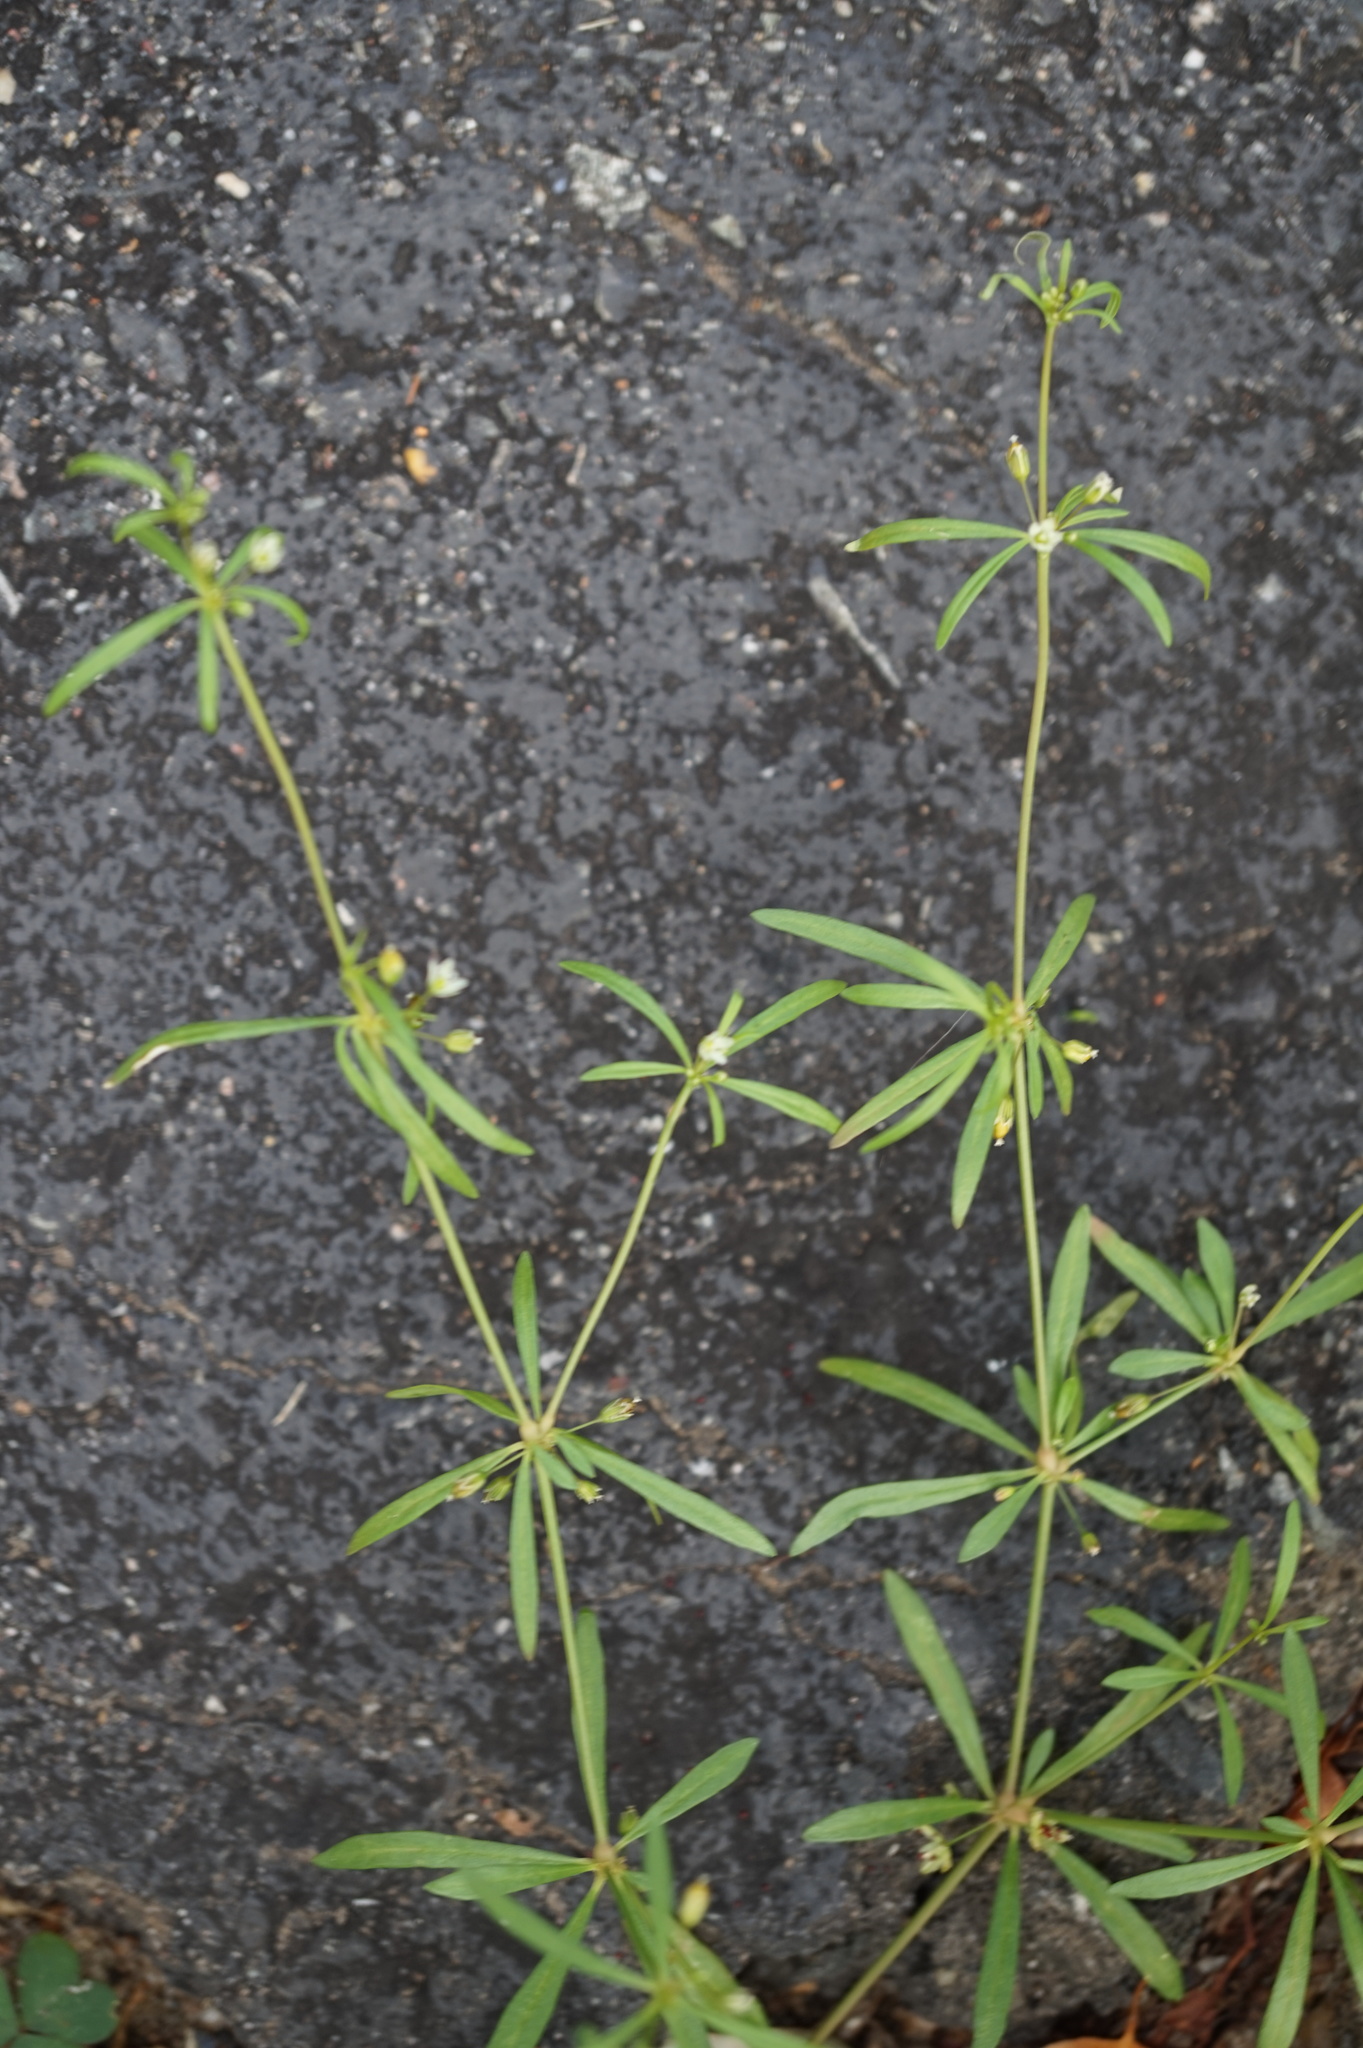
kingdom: Plantae
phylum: Tracheophyta
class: Magnoliopsida
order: Caryophyllales
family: Molluginaceae
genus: Mollugo
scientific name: Mollugo verticillata
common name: Green carpetweed
